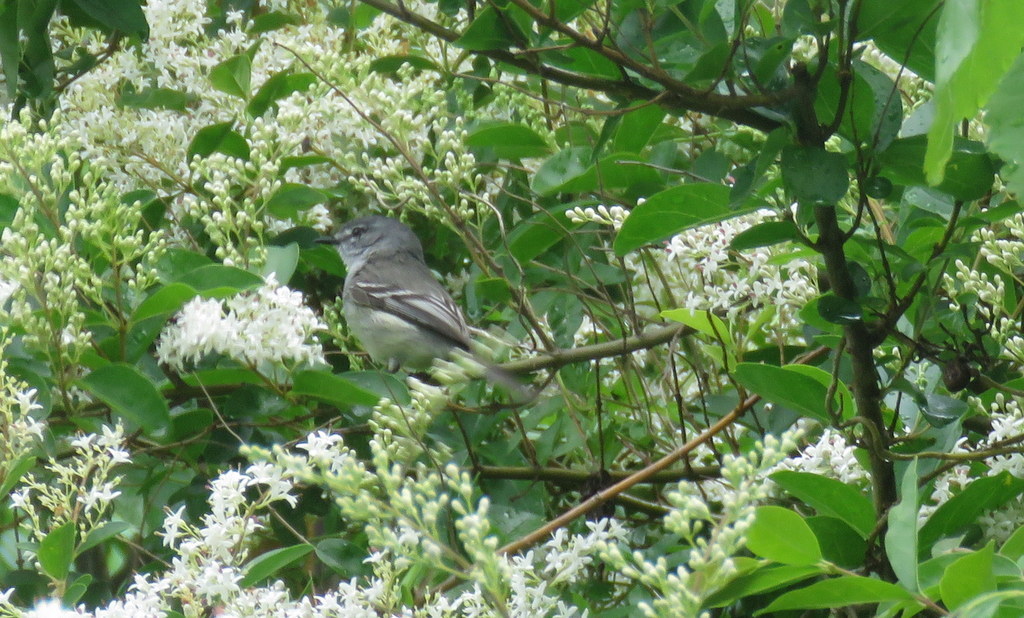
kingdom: Animalia
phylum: Chordata
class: Aves
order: Passeriformes
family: Tyrannidae
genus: Serpophaga
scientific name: Serpophaga subcristata
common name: White-crested tyrannulet
